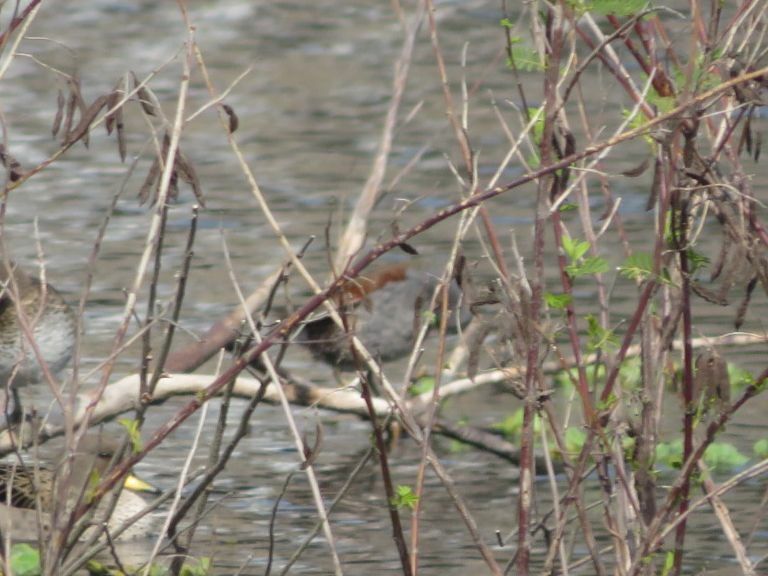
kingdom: Animalia
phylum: Chordata
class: Aves
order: Gruiformes
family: Rallidae
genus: Gallinula
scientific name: Gallinula melanops
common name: Spot-flanked gallinule
